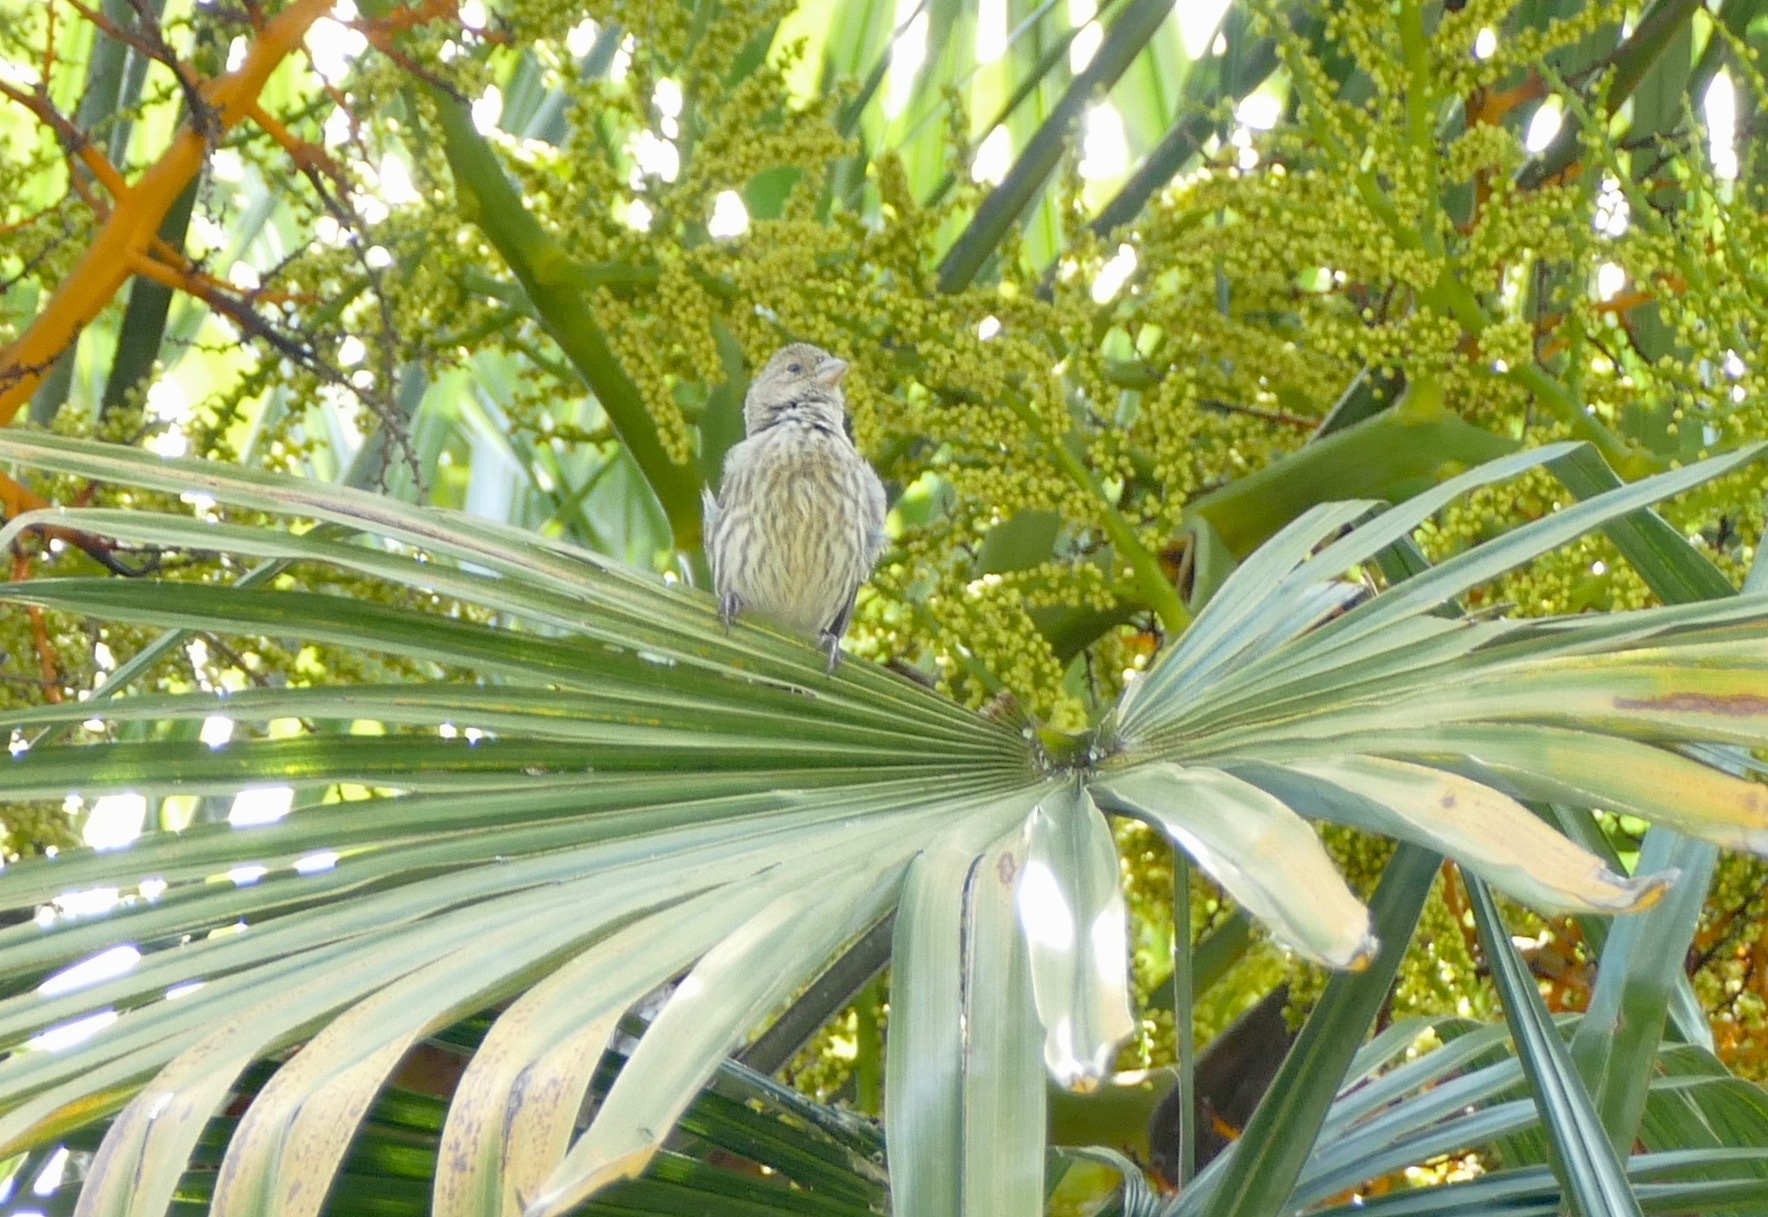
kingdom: Animalia
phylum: Chordata
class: Aves
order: Passeriformes
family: Fringillidae
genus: Haemorhous
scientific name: Haemorhous mexicanus
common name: House finch
